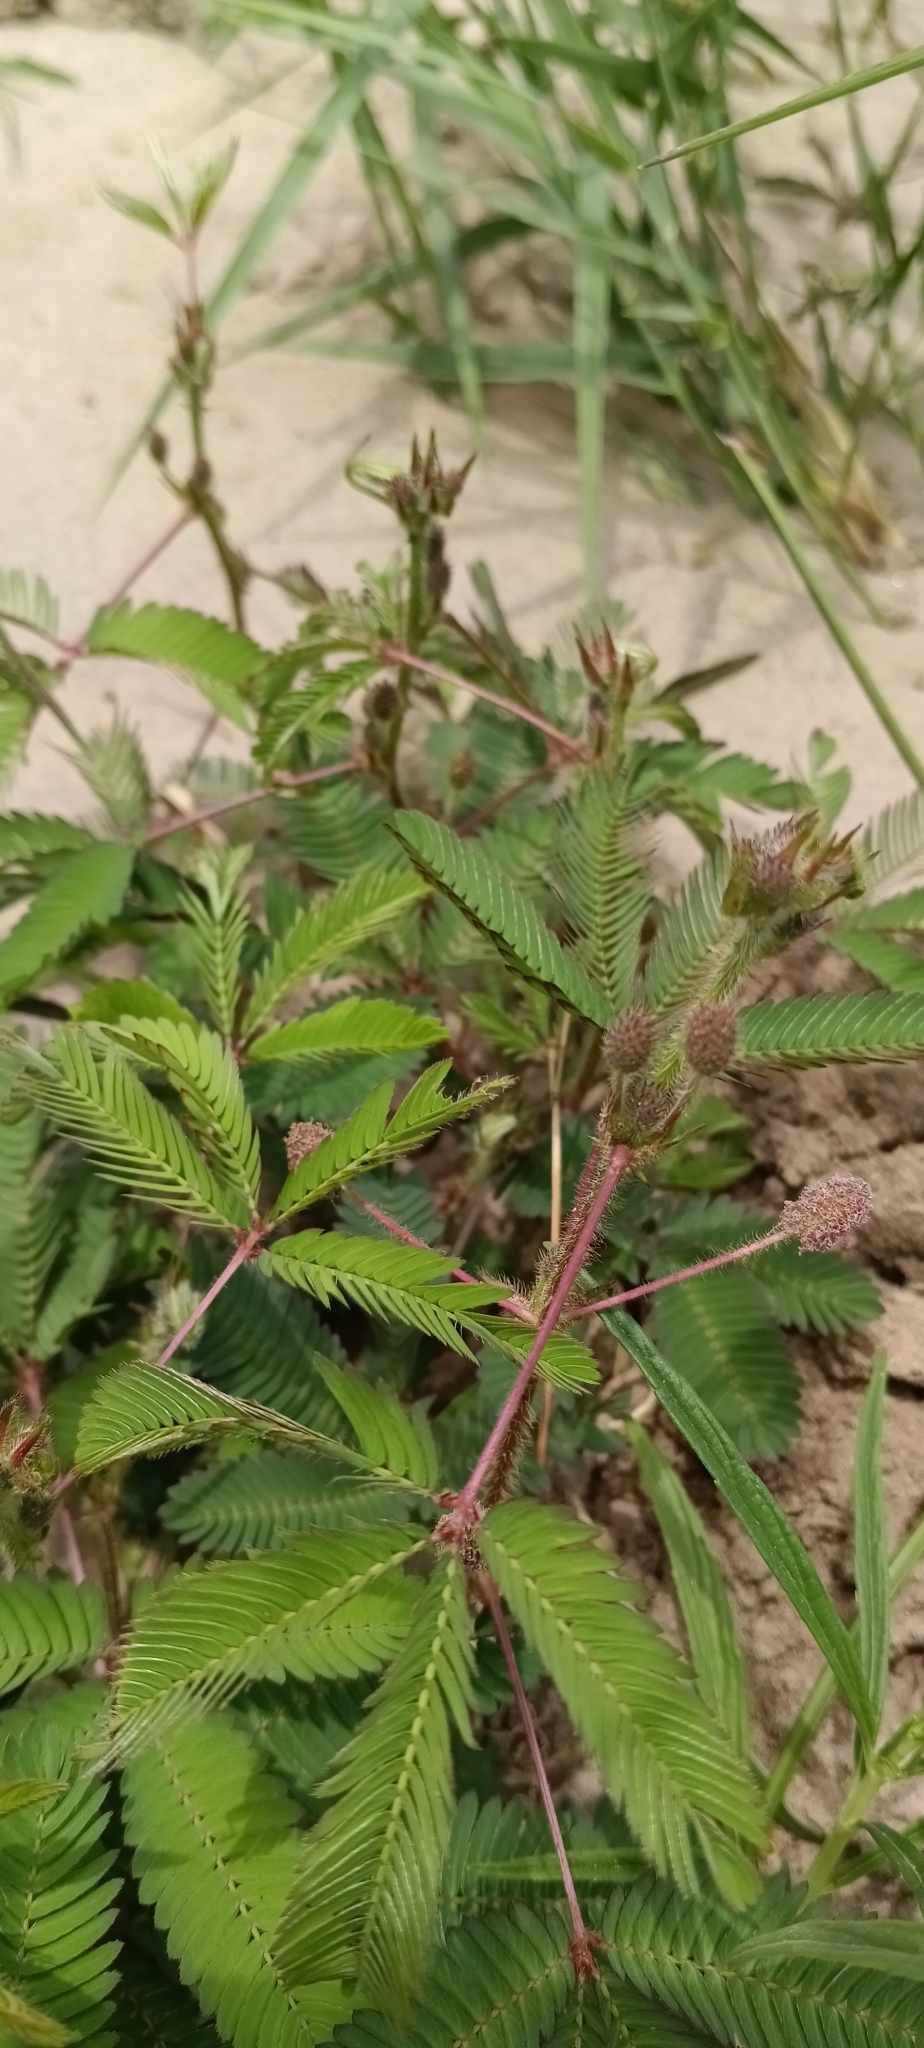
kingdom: Plantae
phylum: Tracheophyta
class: Magnoliopsida
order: Fabales
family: Fabaceae
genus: Mimosa
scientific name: Mimosa pudica
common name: Sensitive plant
